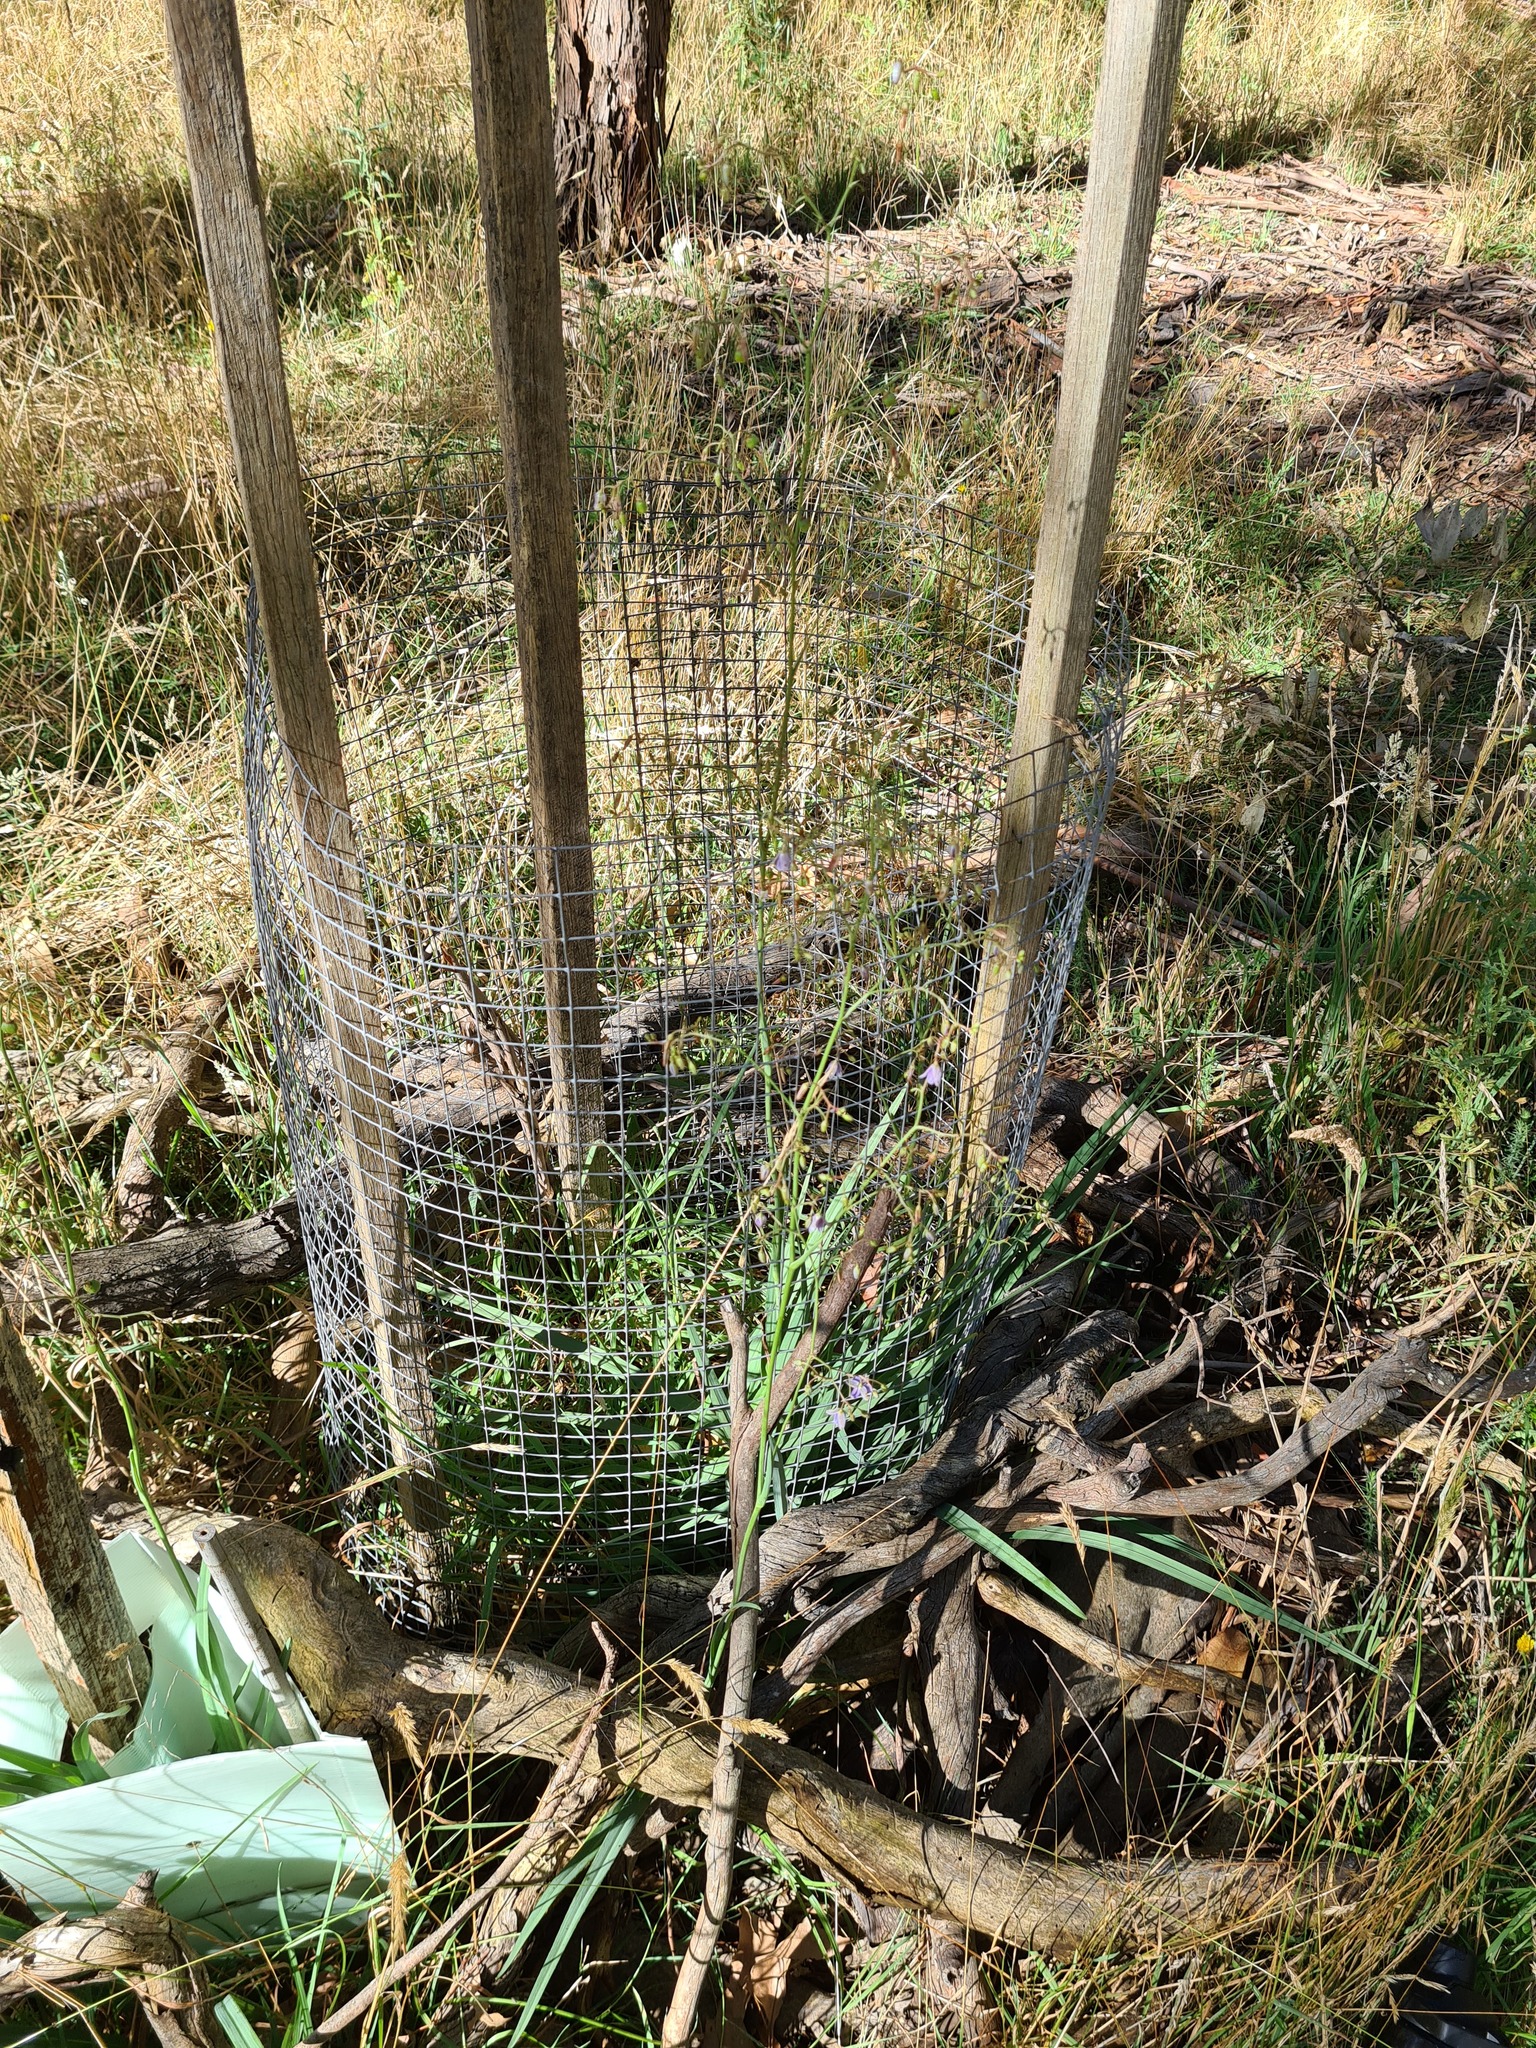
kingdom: Plantae
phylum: Tracheophyta
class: Liliopsida
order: Asparagales
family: Asphodelaceae
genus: Dianella
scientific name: Dianella amoena
